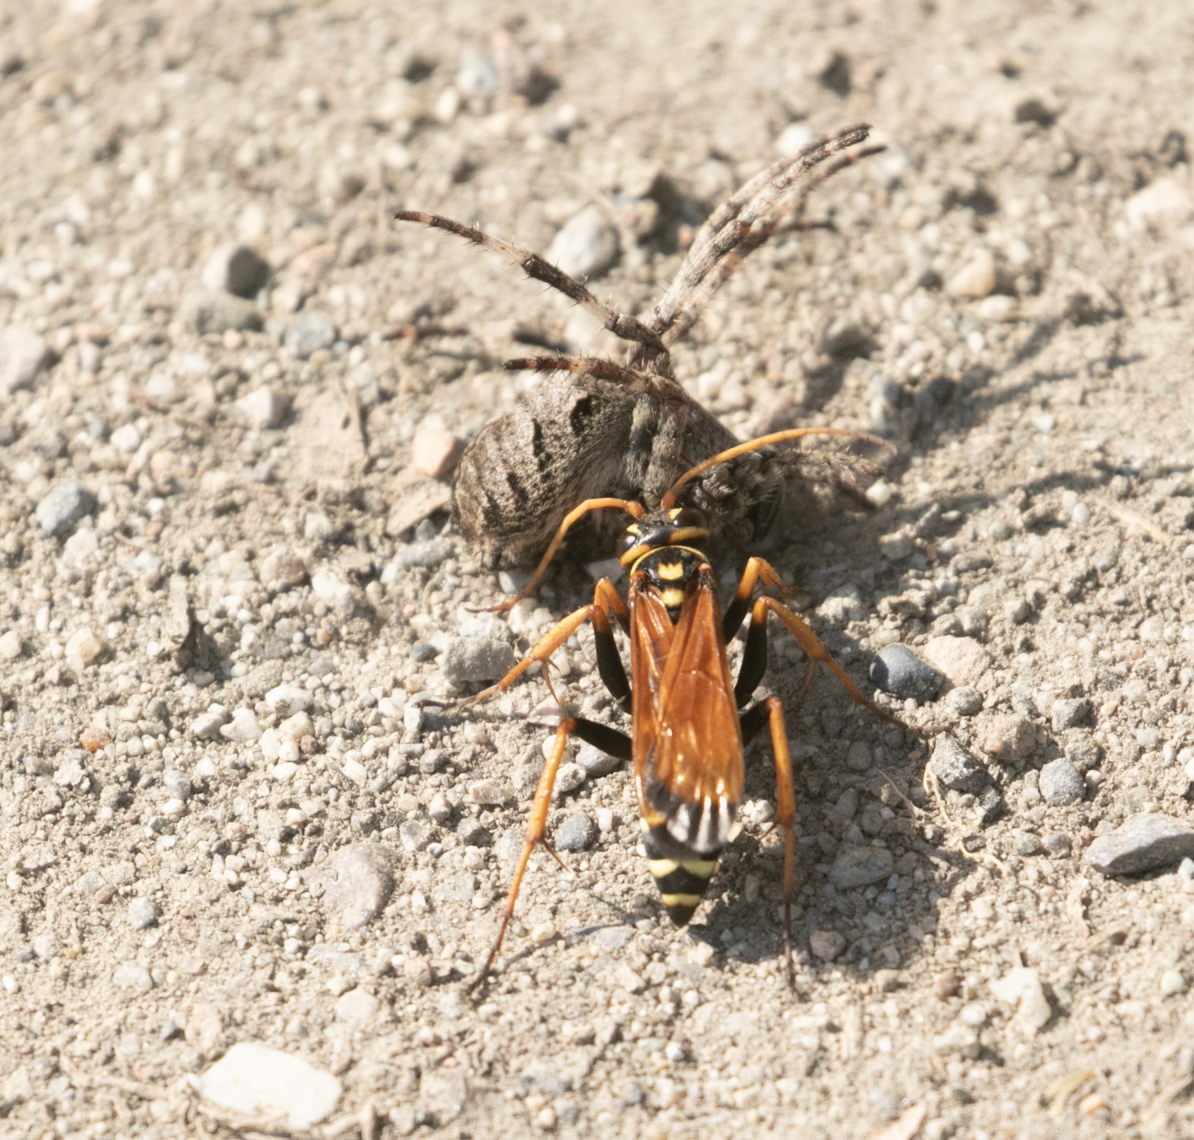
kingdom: Animalia
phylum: Arthropoda
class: Insecta
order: Hymenoptera
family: Pompilidae
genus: Parabatozonus
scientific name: Parabatozonus lacerticida
